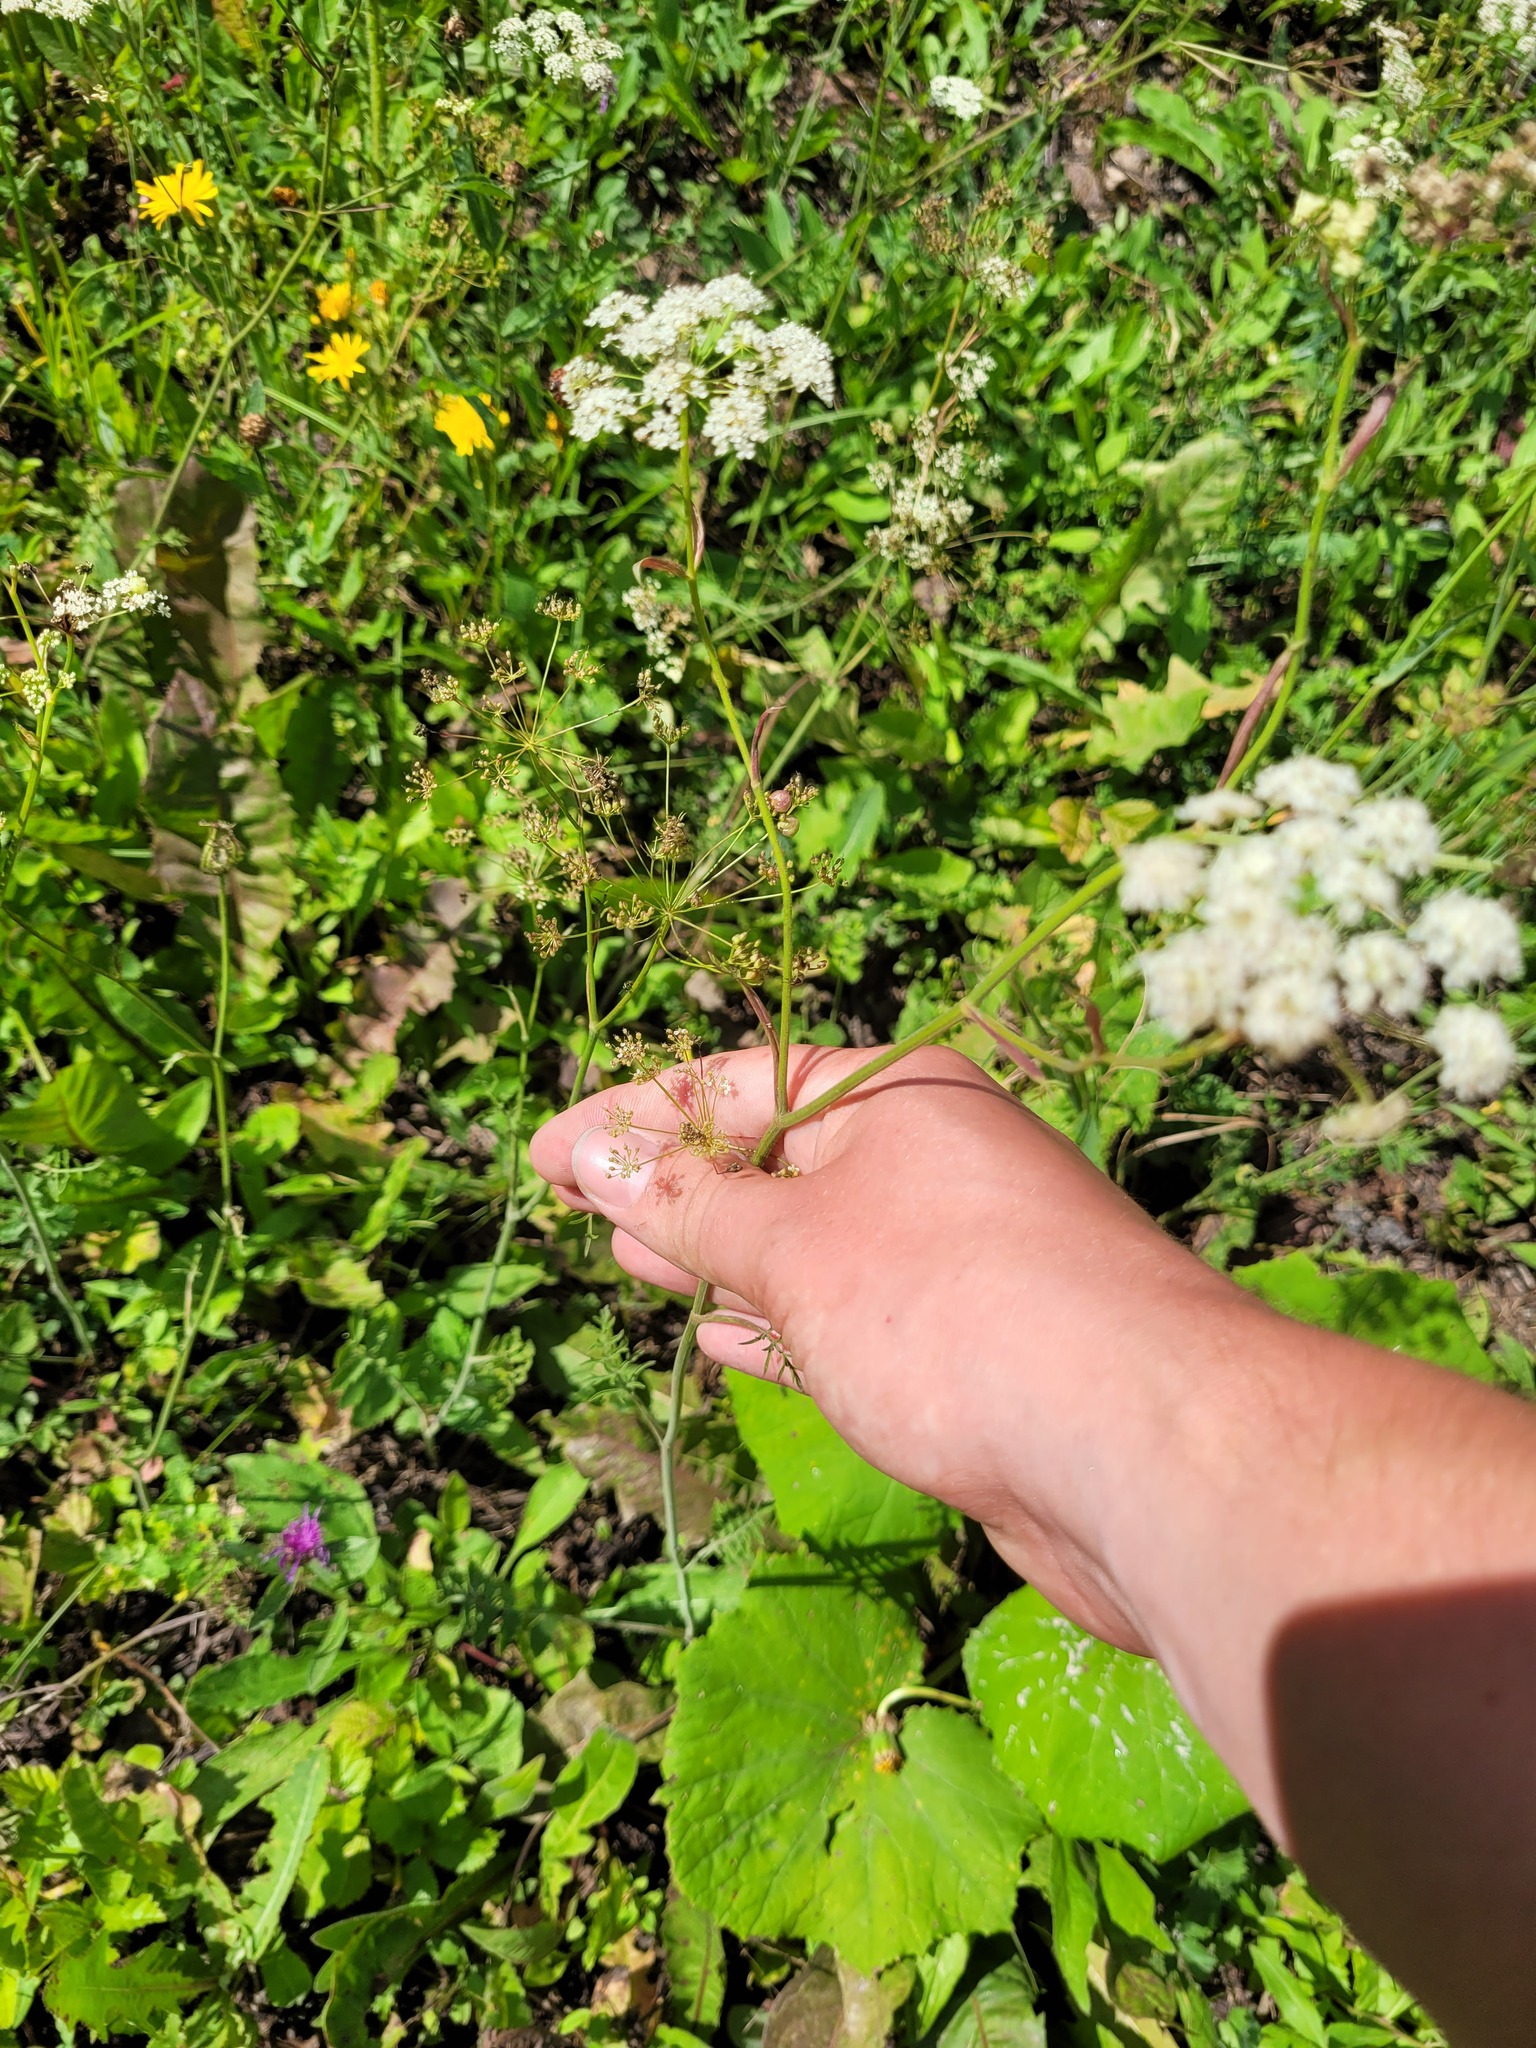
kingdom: Plantae
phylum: Tracheophyta
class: Magnoliopsida
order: Apiales
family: Apiaceae
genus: Pimpinella
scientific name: Pimpinella saxifraga
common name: Burnet-saxifrage
